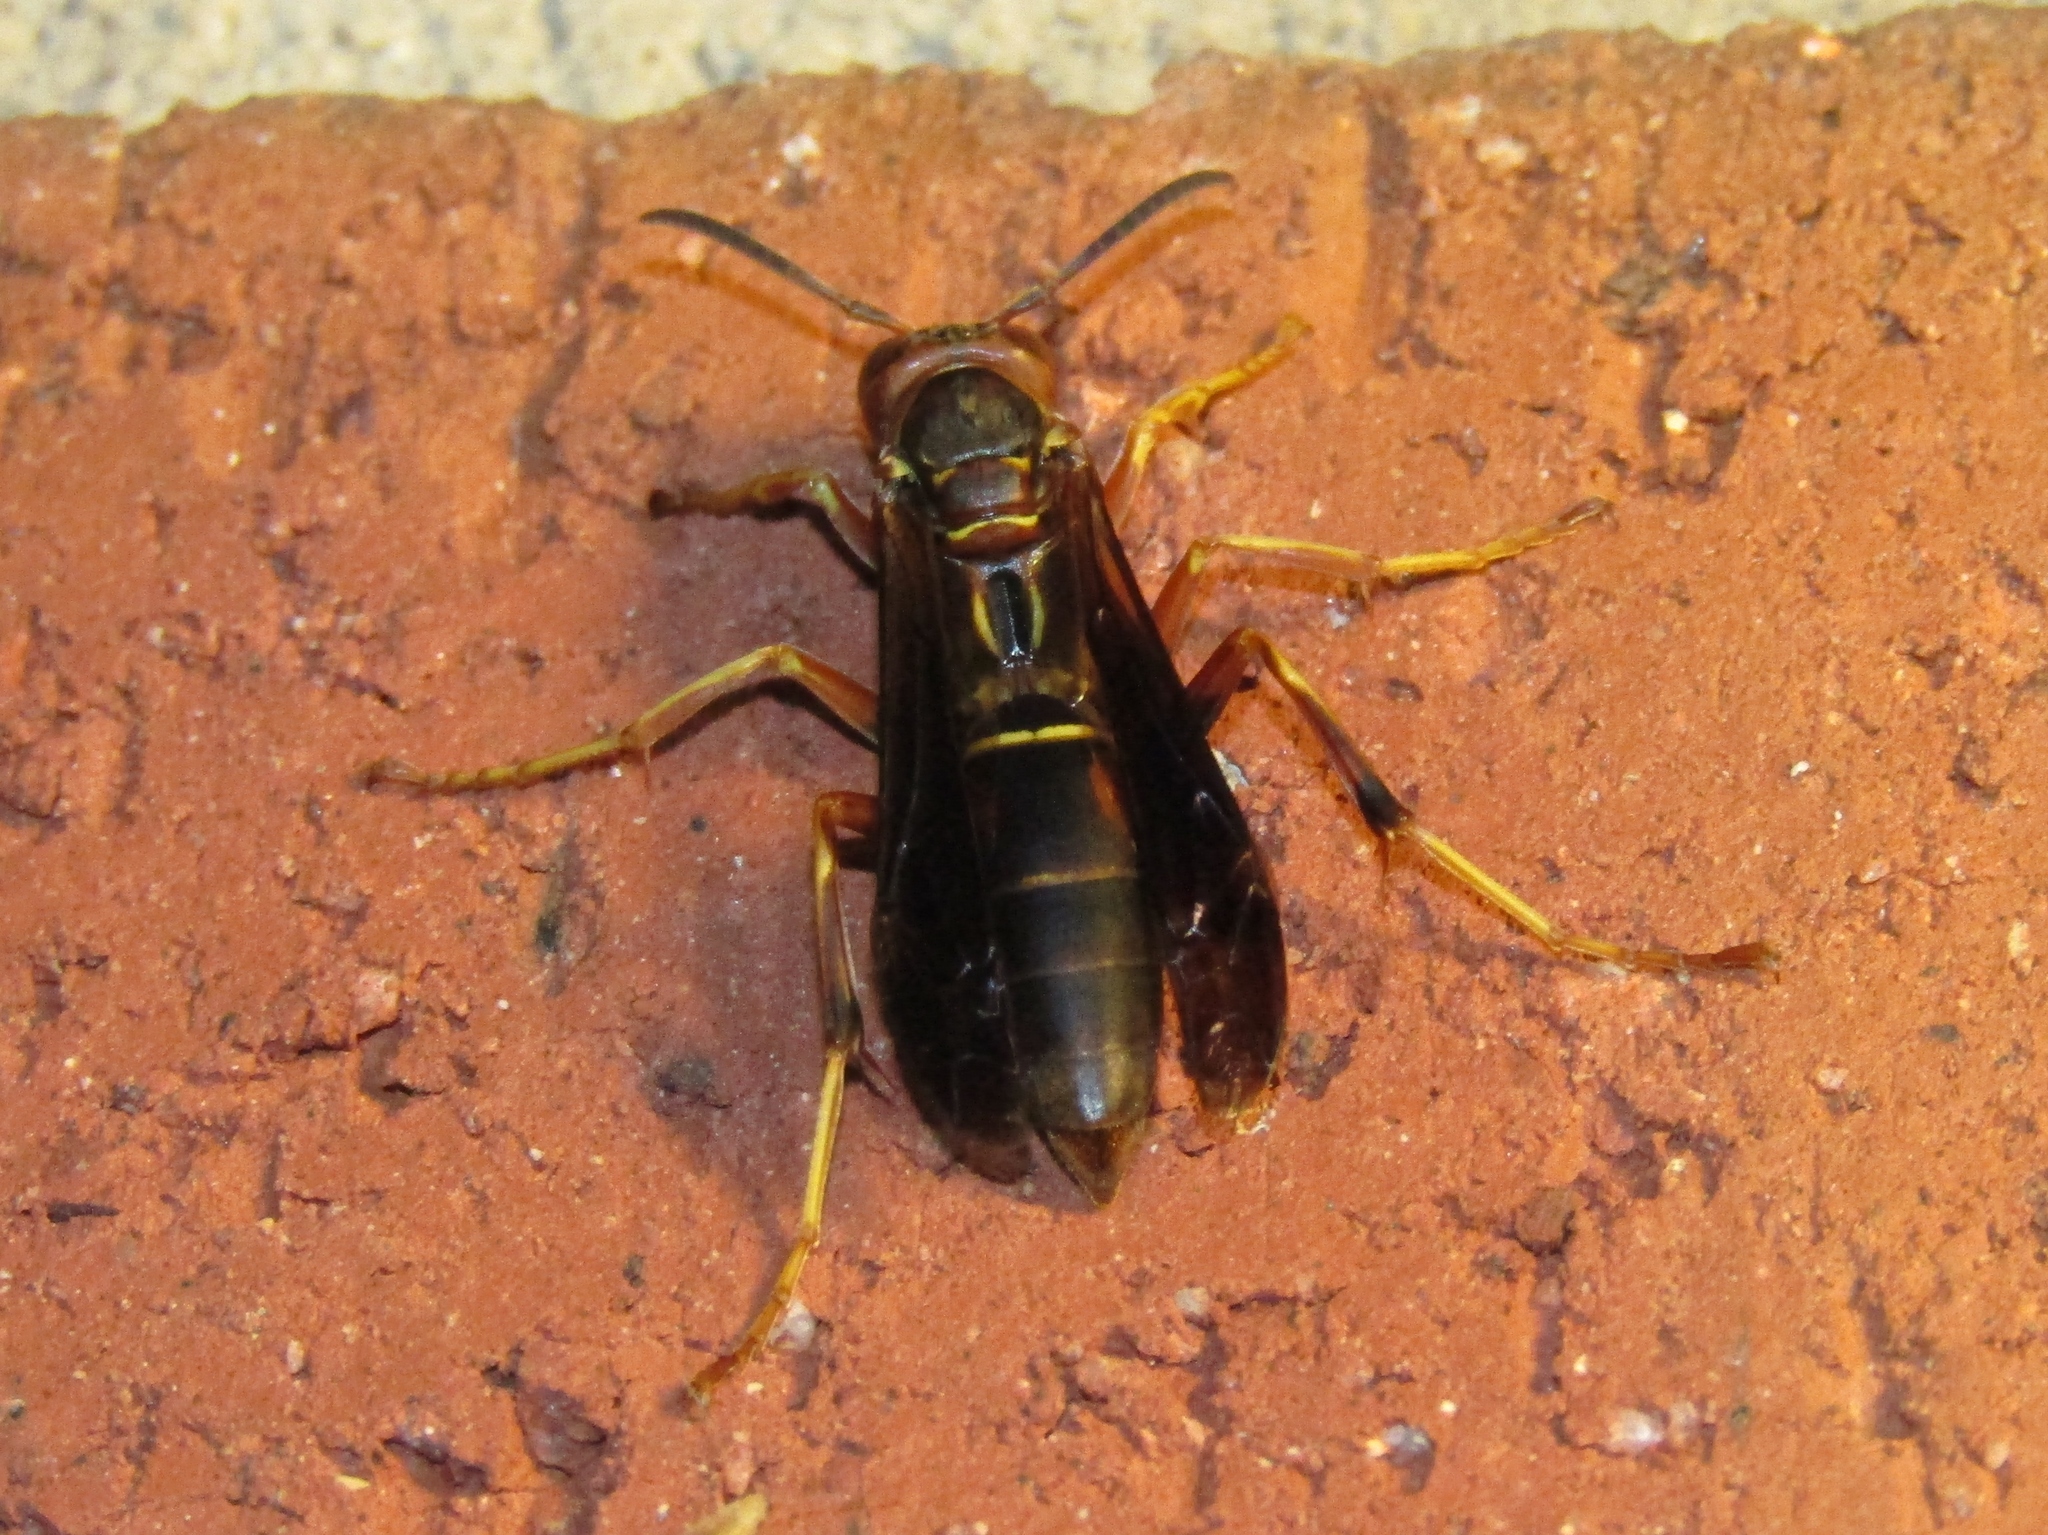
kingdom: Animalia
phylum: Arthropoda
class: Insecta
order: Hymenoptera
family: Eumenidae
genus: Polistes
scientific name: Polistes fuscatus
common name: Dark paper wasp
